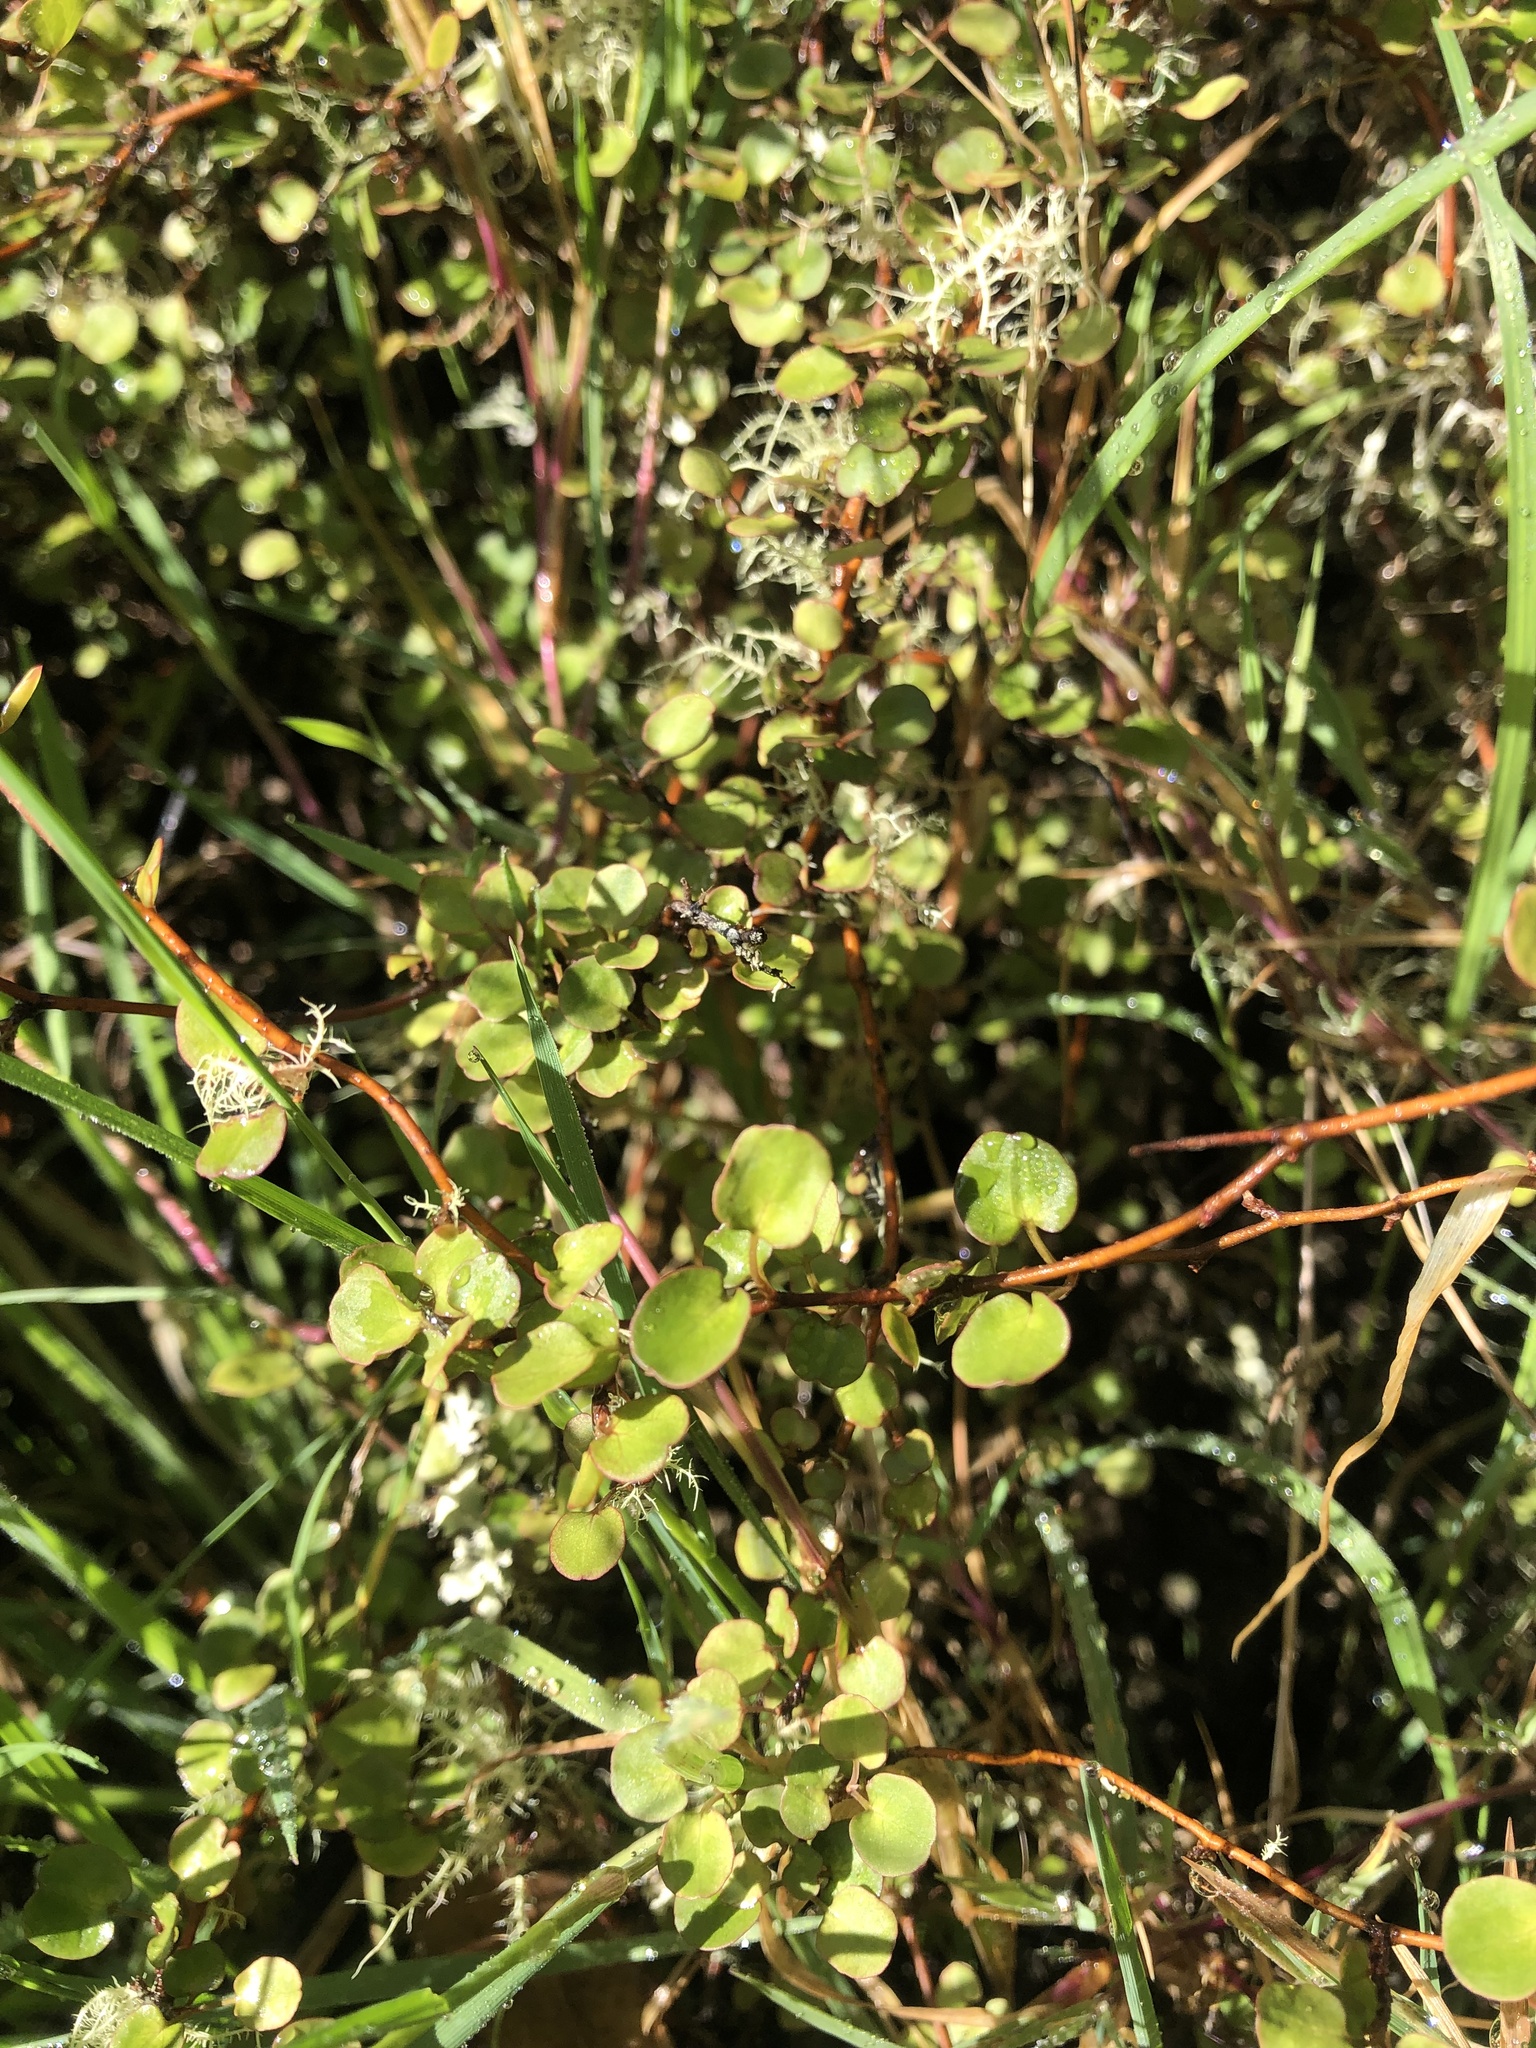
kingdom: Plantae
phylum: Tracheophyta
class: Magnoliopsida
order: Caryophyllales
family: Polygonaceae
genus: Muehlenbeckia
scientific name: Muehlenbeckia complexa
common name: Wireplant
